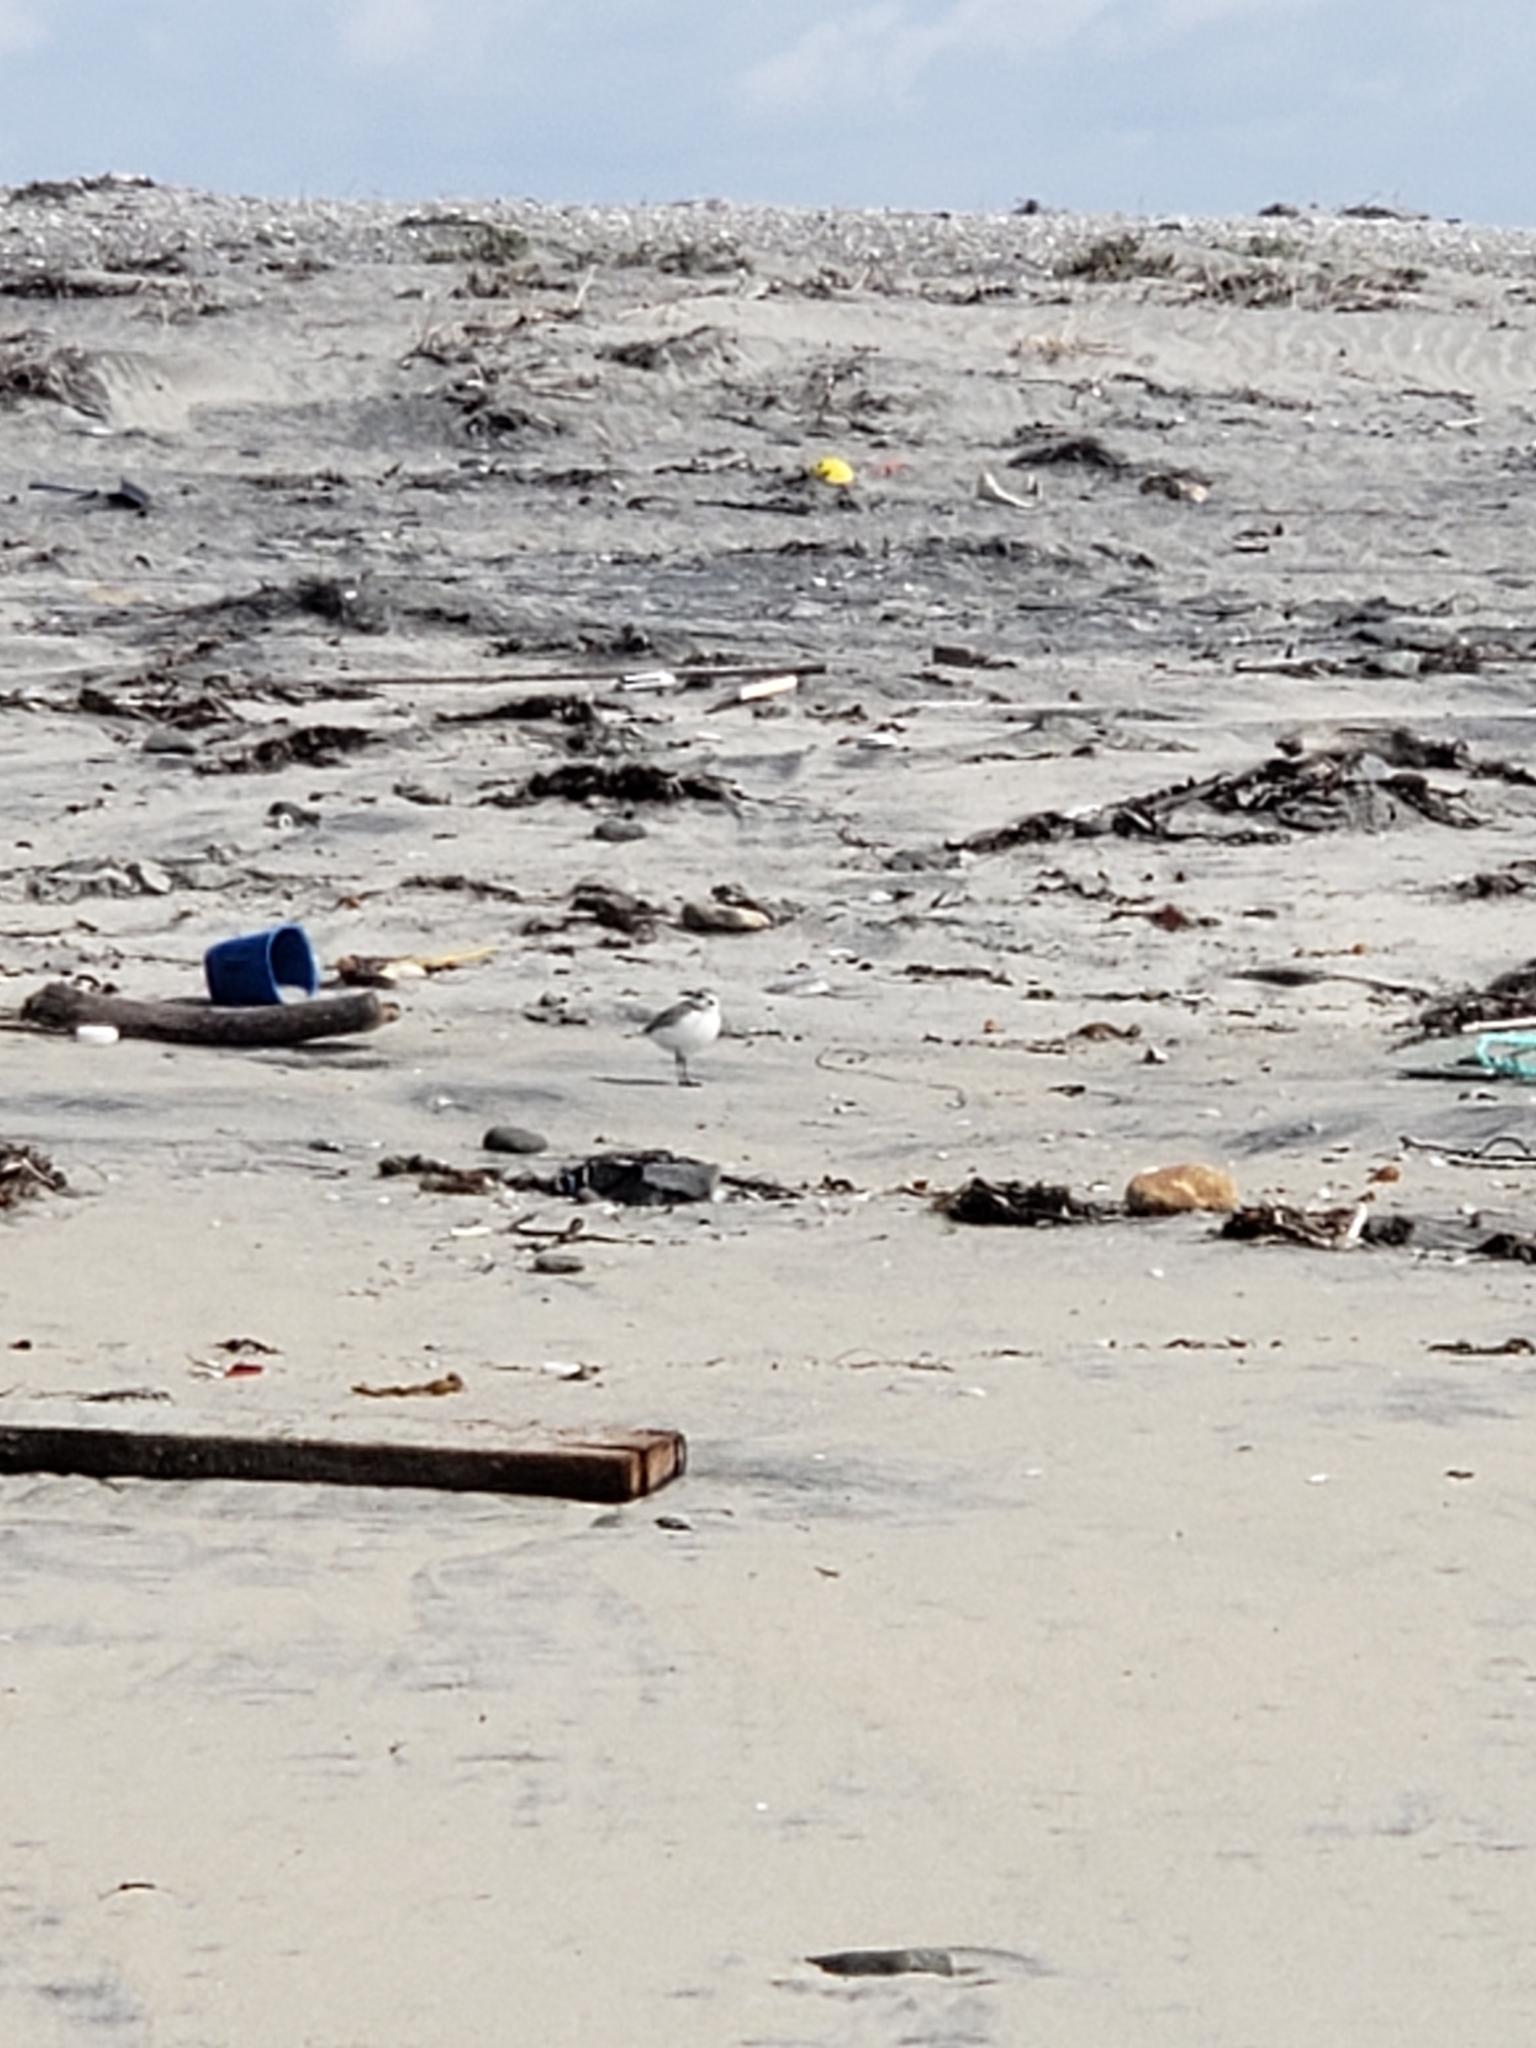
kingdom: Animalia
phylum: Chordata
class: Aves
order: Charadriiformes
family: Charadriidae
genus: Anarhynchus
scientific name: Anarhynchus
